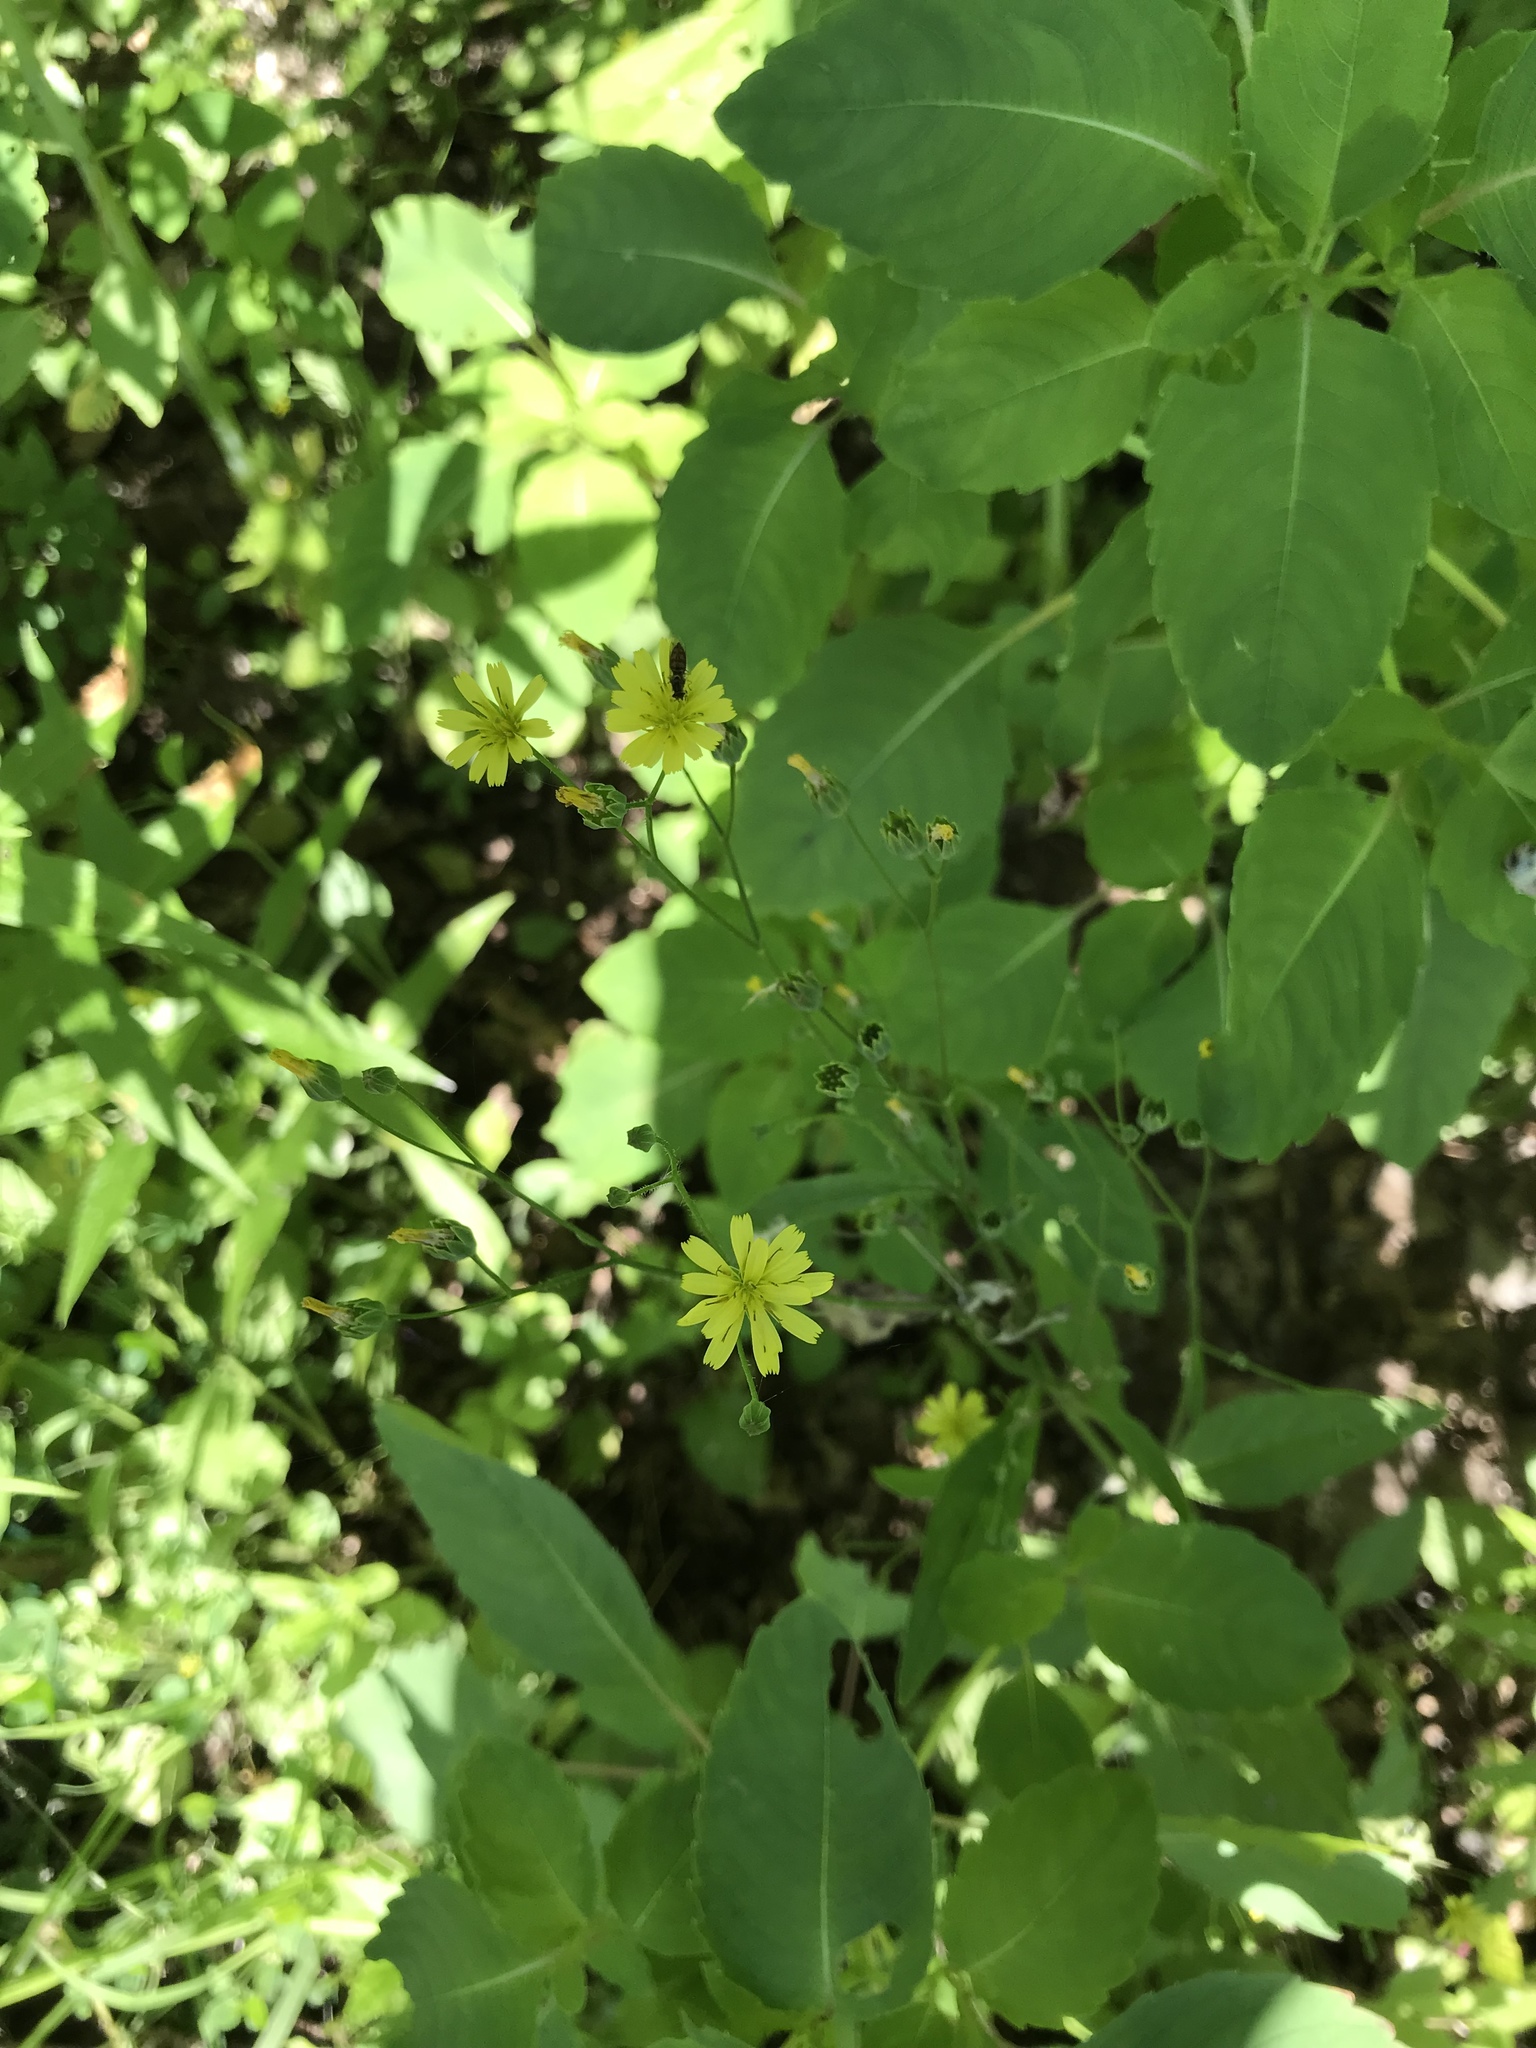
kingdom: Plantae
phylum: Tracheophyta
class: Magnoliopsida
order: Asterales
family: Asteraceae
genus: Lapsana
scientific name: Lapsana communis
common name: Nipplewort
